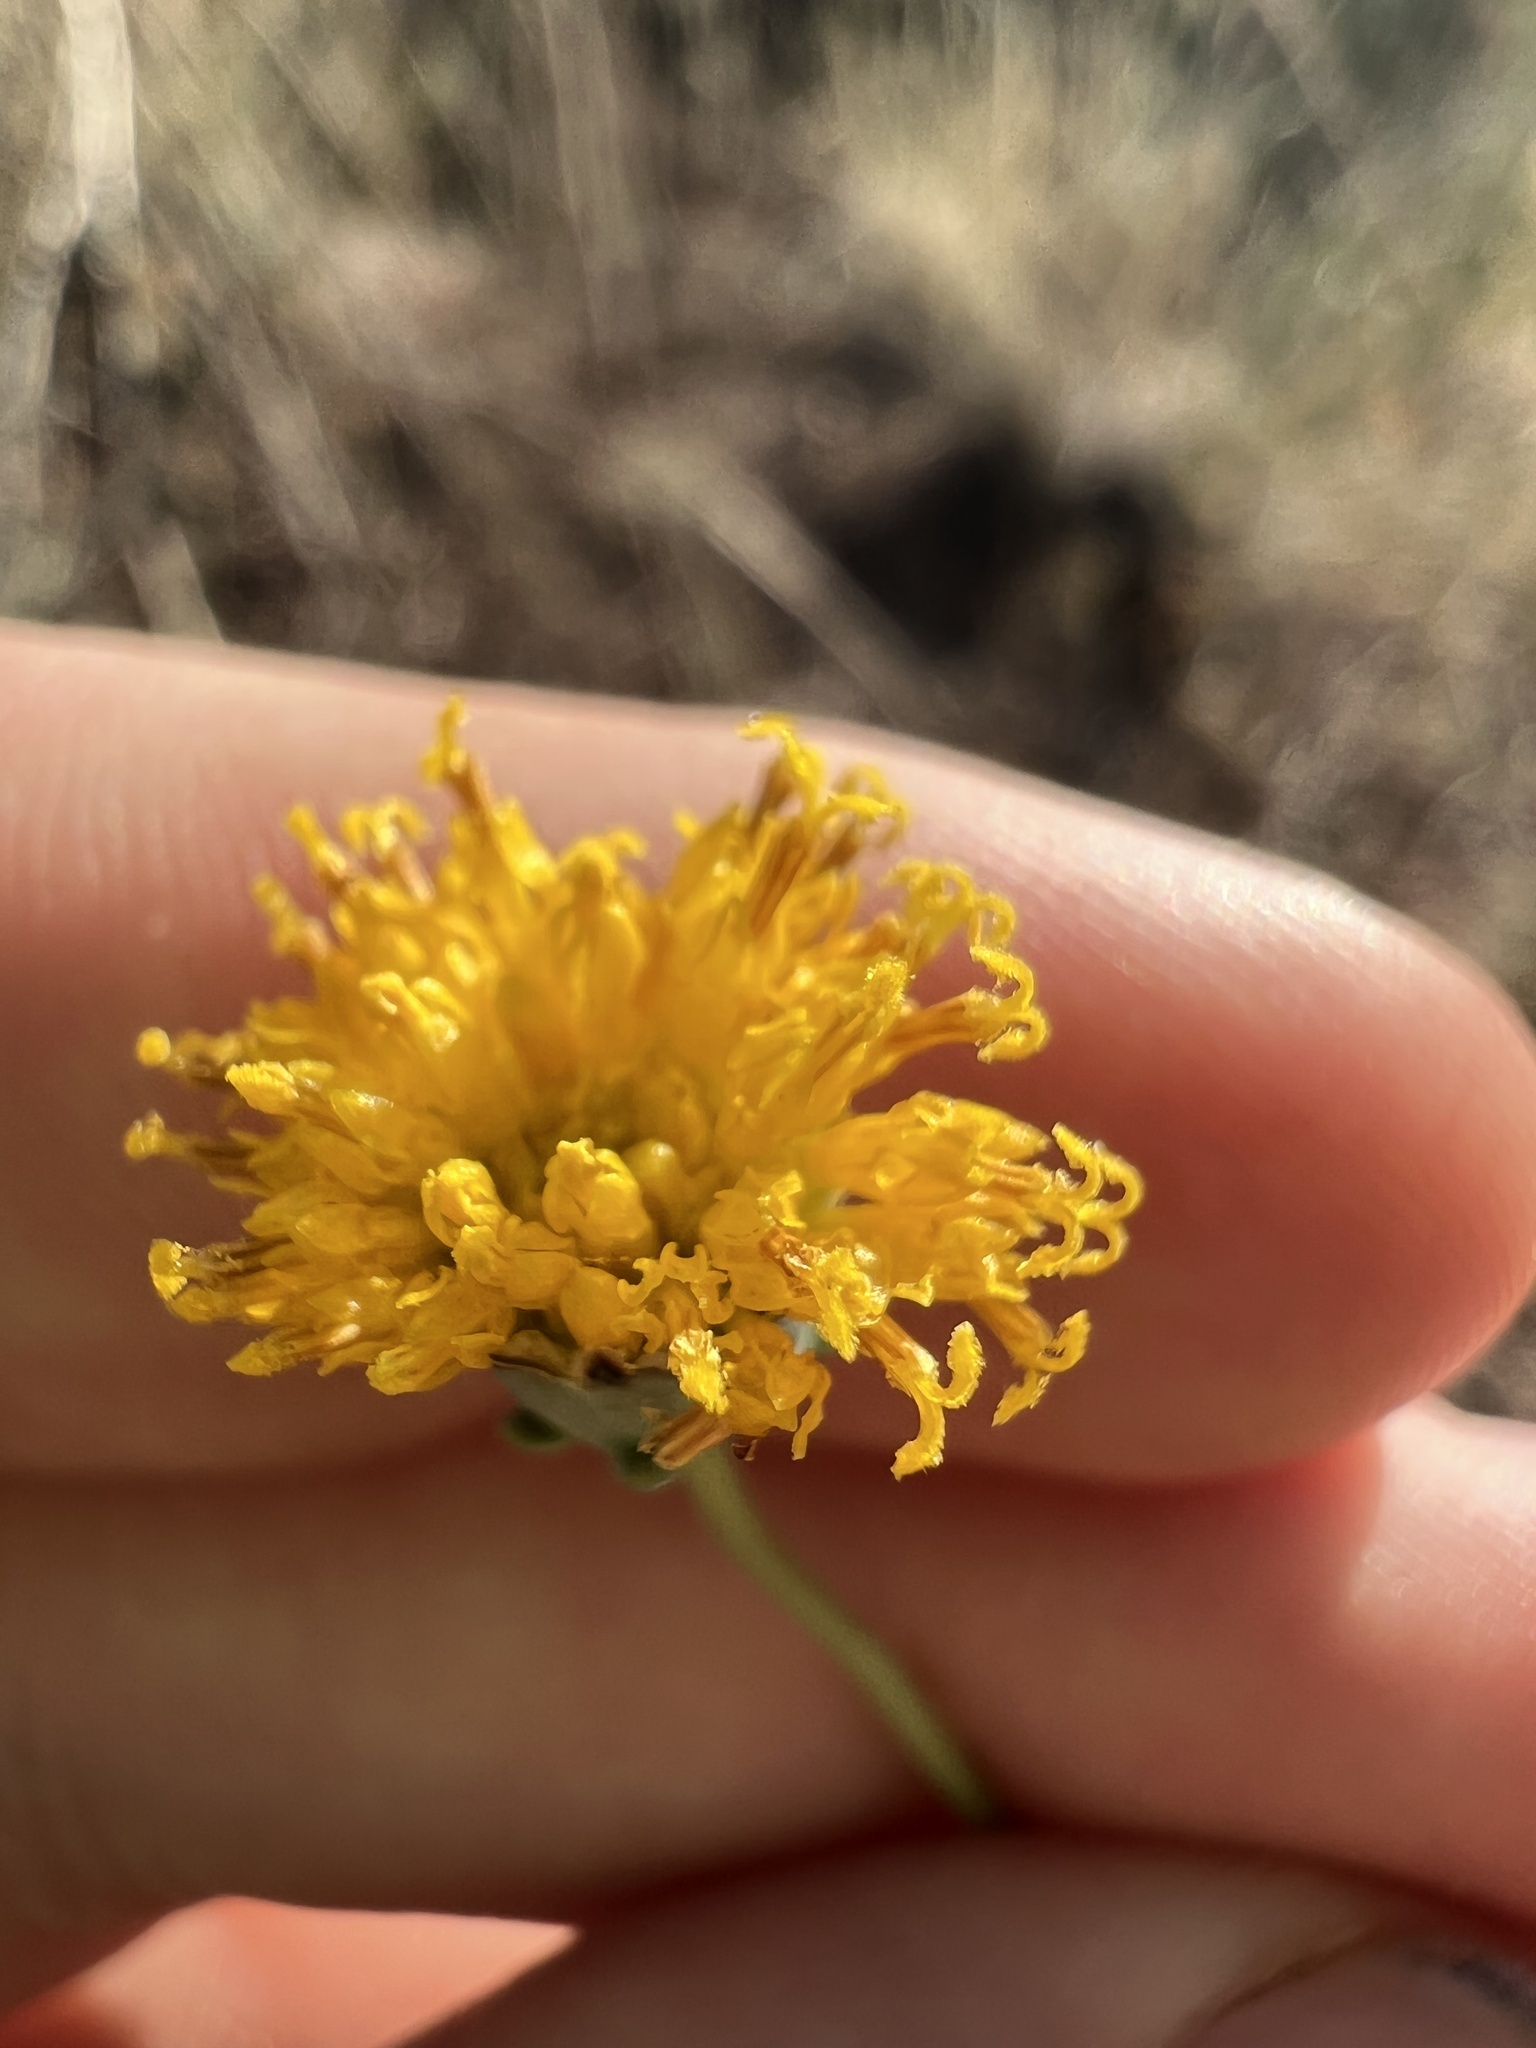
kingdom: Plantae
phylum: Tracheophyta
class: Magnoliopsida
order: Asterales
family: Asteraceae
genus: Thelesperma
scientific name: Thelesperma megapotamicum
